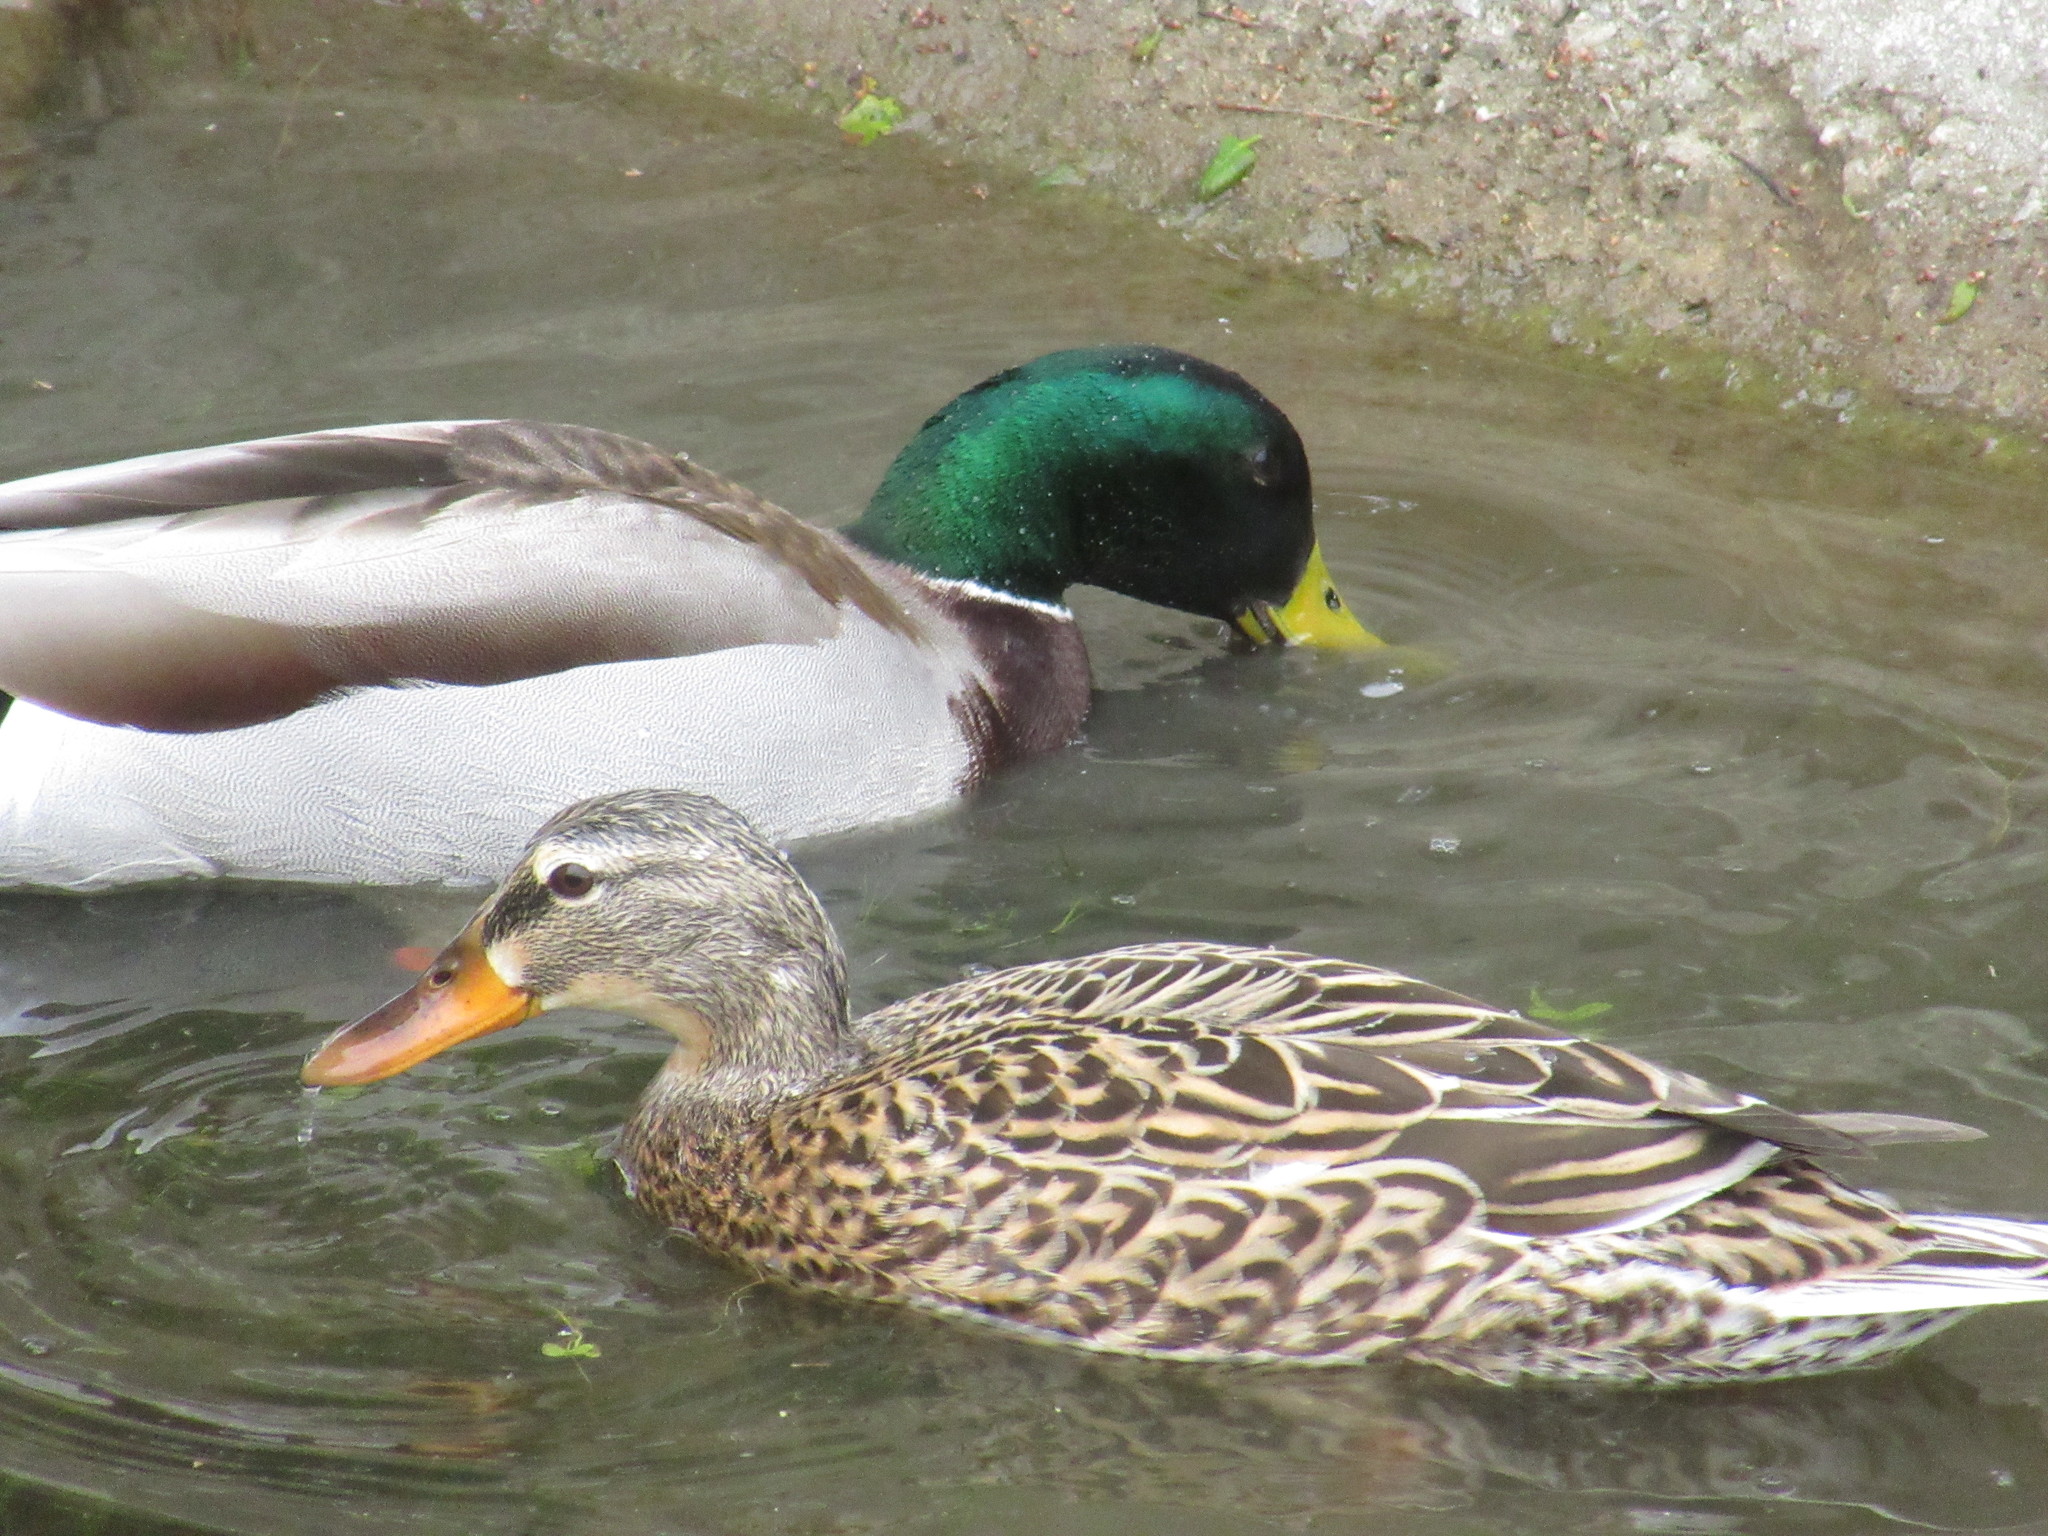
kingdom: Animalia
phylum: Chordata
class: Aves
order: Anseriformes
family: Anatidae
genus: Anas
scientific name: Anas platyrhynchos
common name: Mallard
